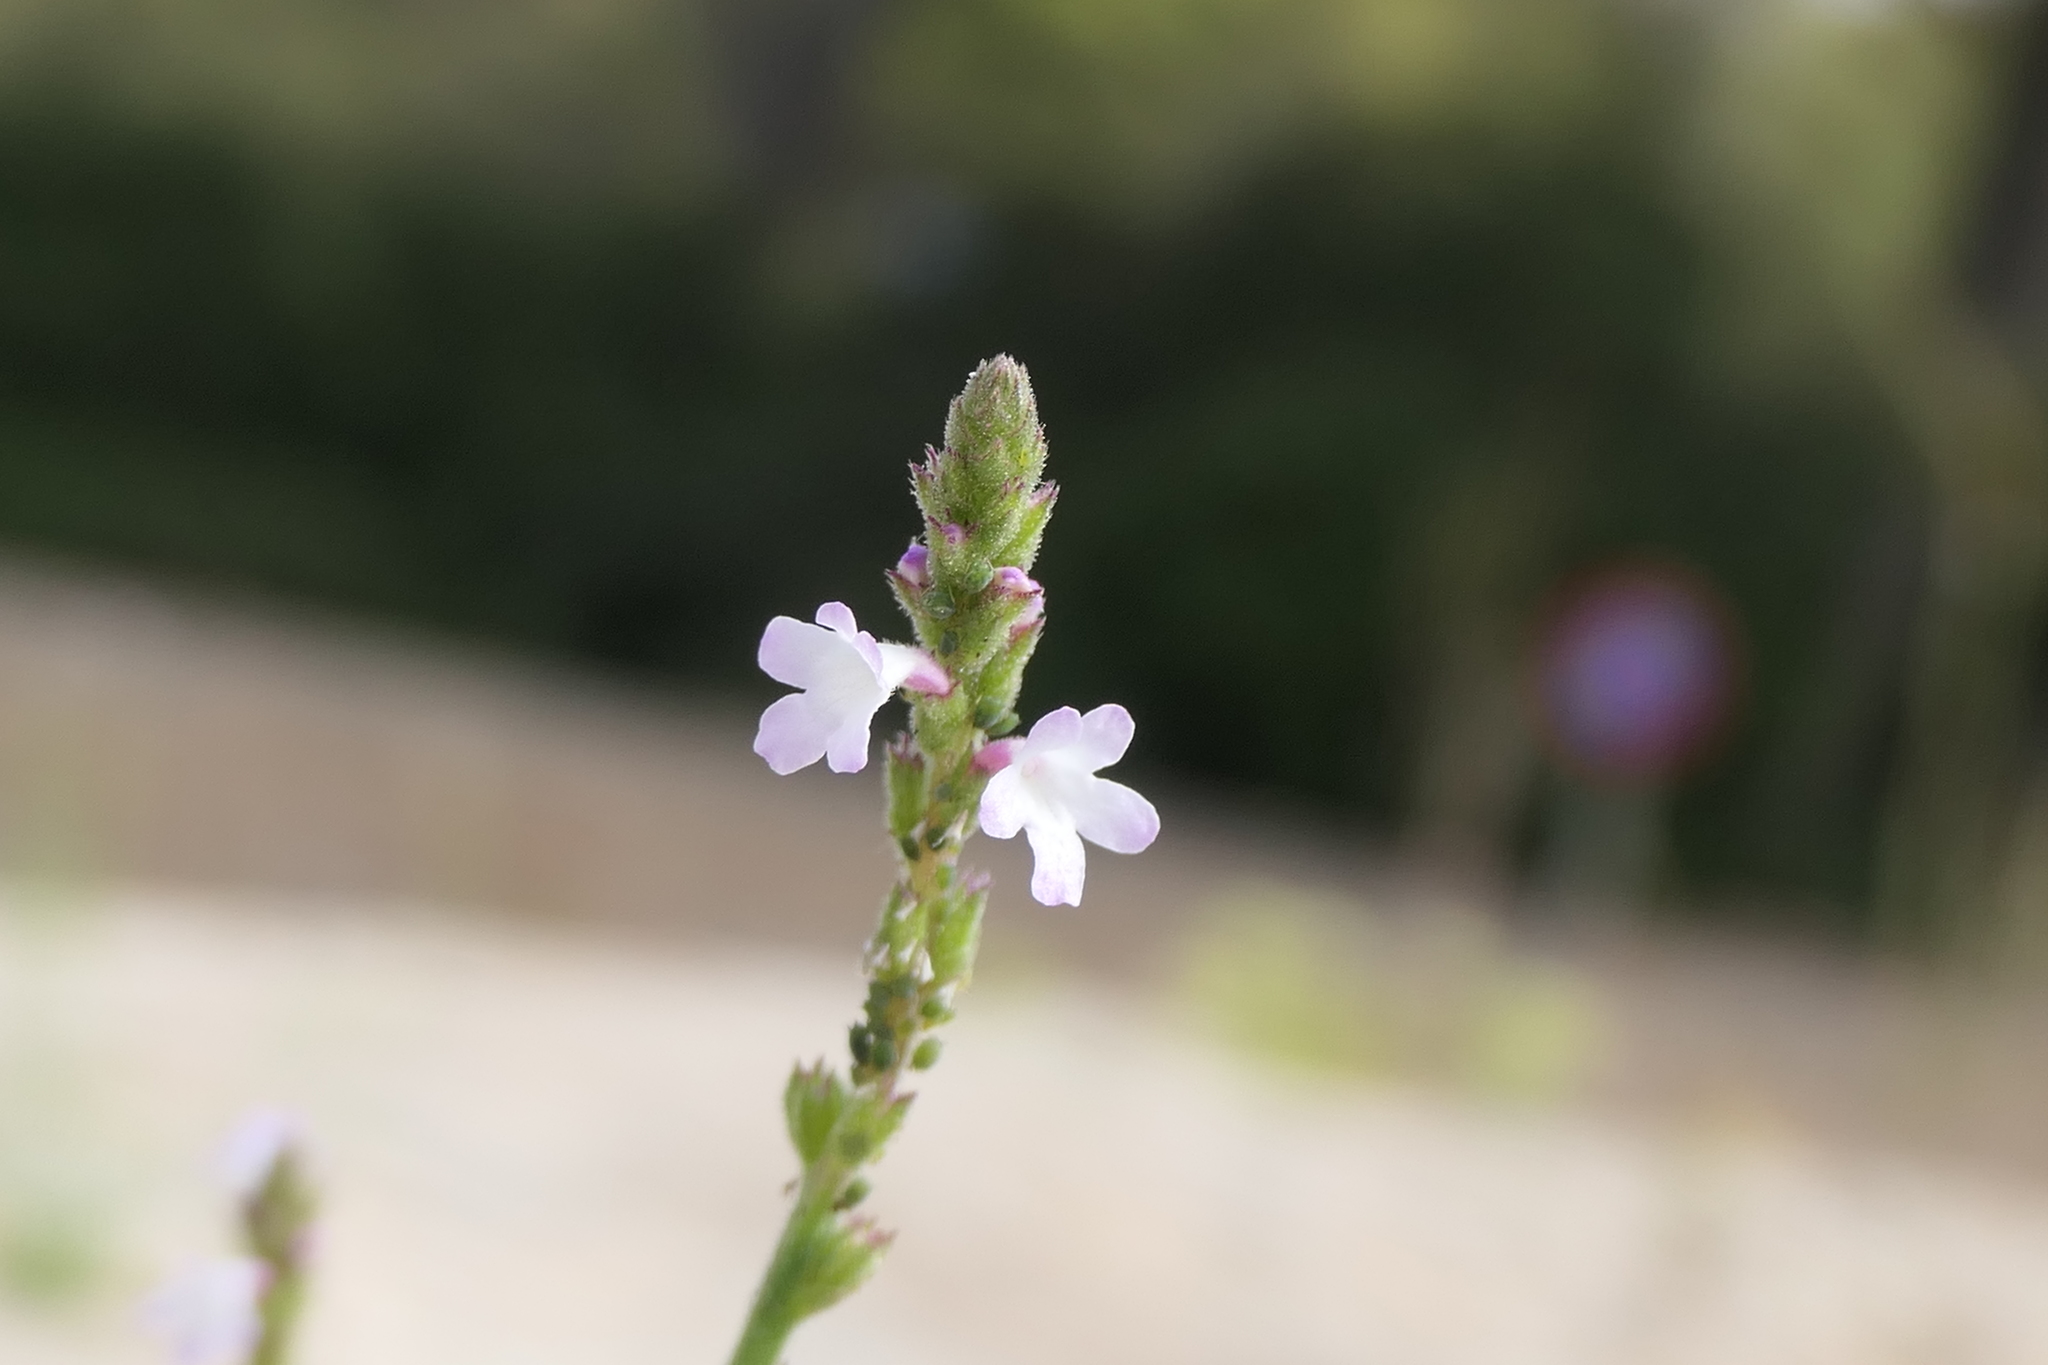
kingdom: Plantae
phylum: Tracheophyta
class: Magnoliopsida
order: Lamiales
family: Verbenaceae
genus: Verbena
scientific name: Verbena officinalis
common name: Vervain
